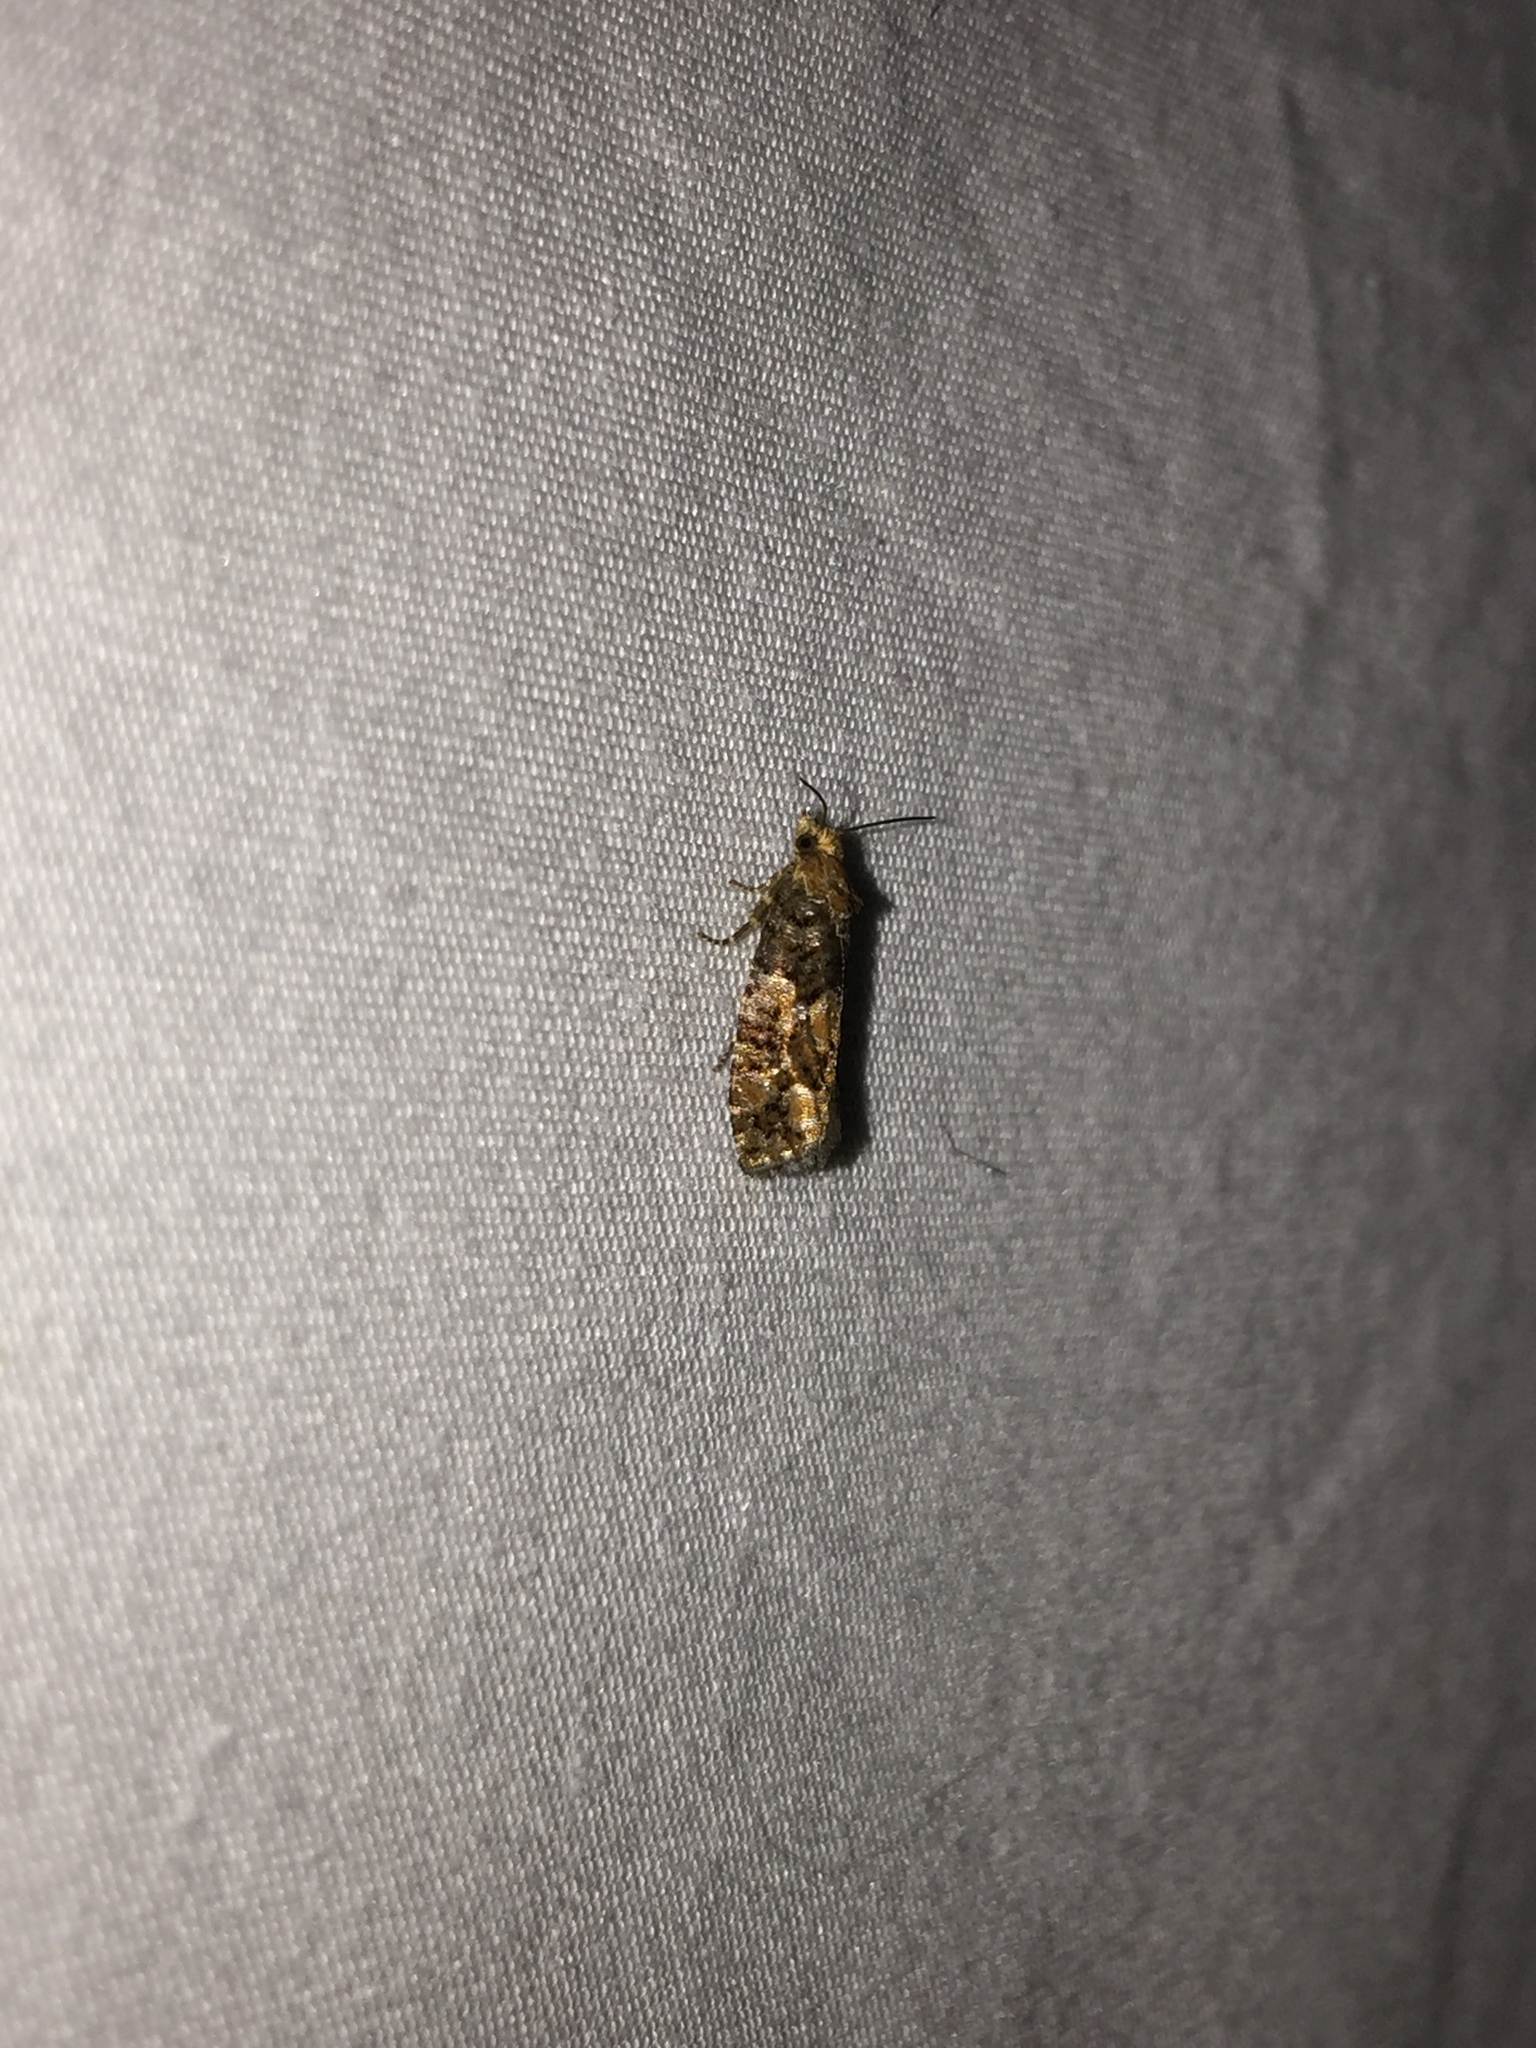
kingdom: Animalia
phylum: Arthropoda
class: Insecta
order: Lepidoptera
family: Tortricidae
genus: Eucopina
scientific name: Eucopina tocullionana
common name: White pinecone borer moth
